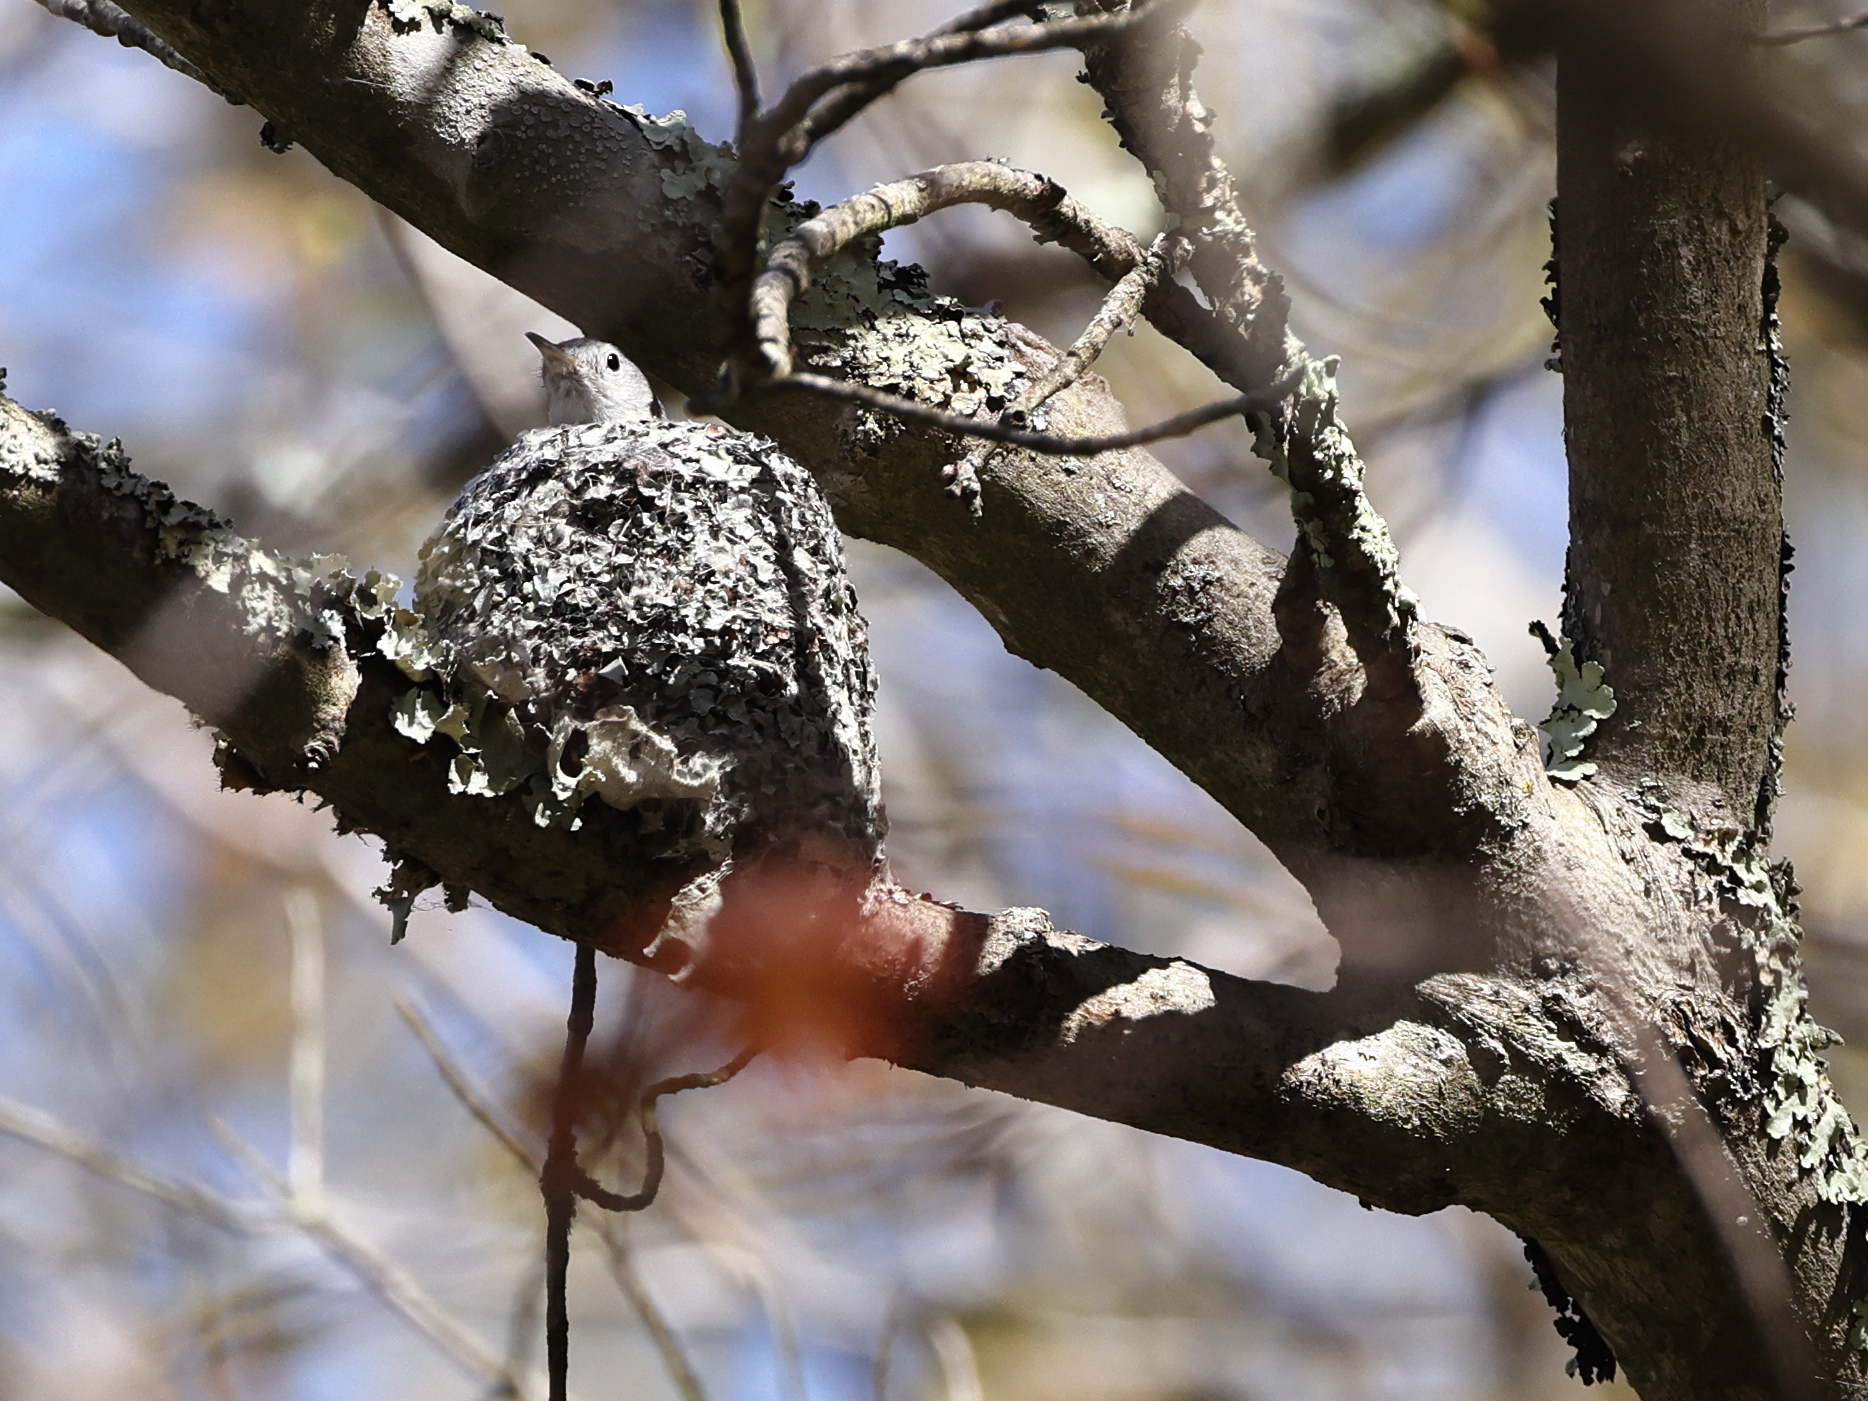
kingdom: Animalia
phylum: Chordata
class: Aves
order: Passeriformes
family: Polioptilidae
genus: Polioptila
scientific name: Polioptila caerulea
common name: Blue-gray gnatcatcher
